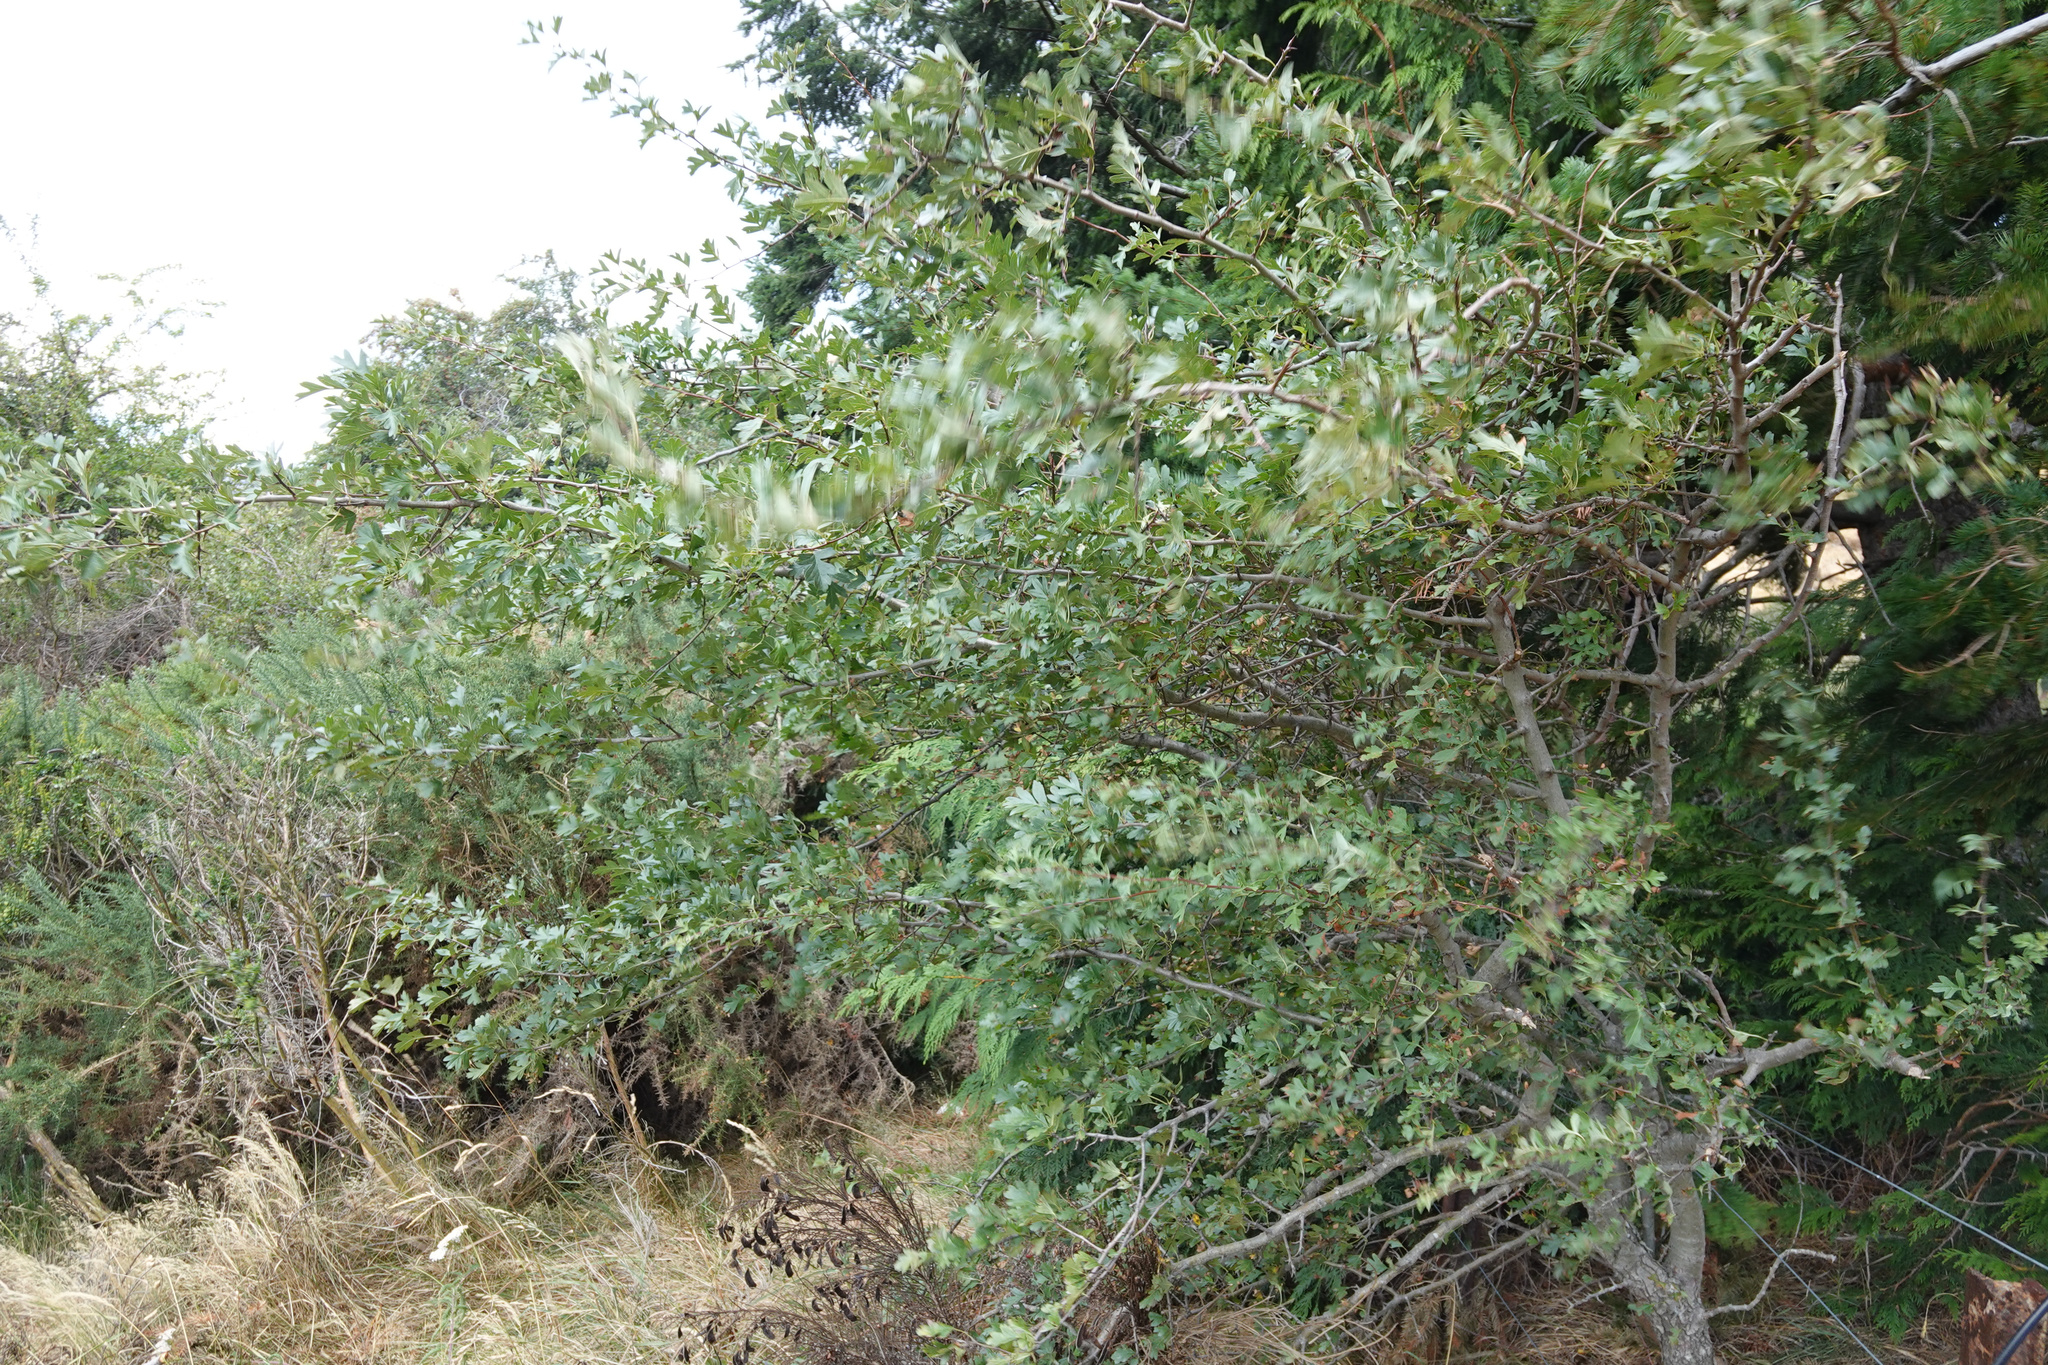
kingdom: Plantae
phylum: Tracheophyta
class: Magnoliopsida
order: Rosales
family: Rosaceae
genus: Crataegus
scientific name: Crataegus monogyna
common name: Hawthorn
